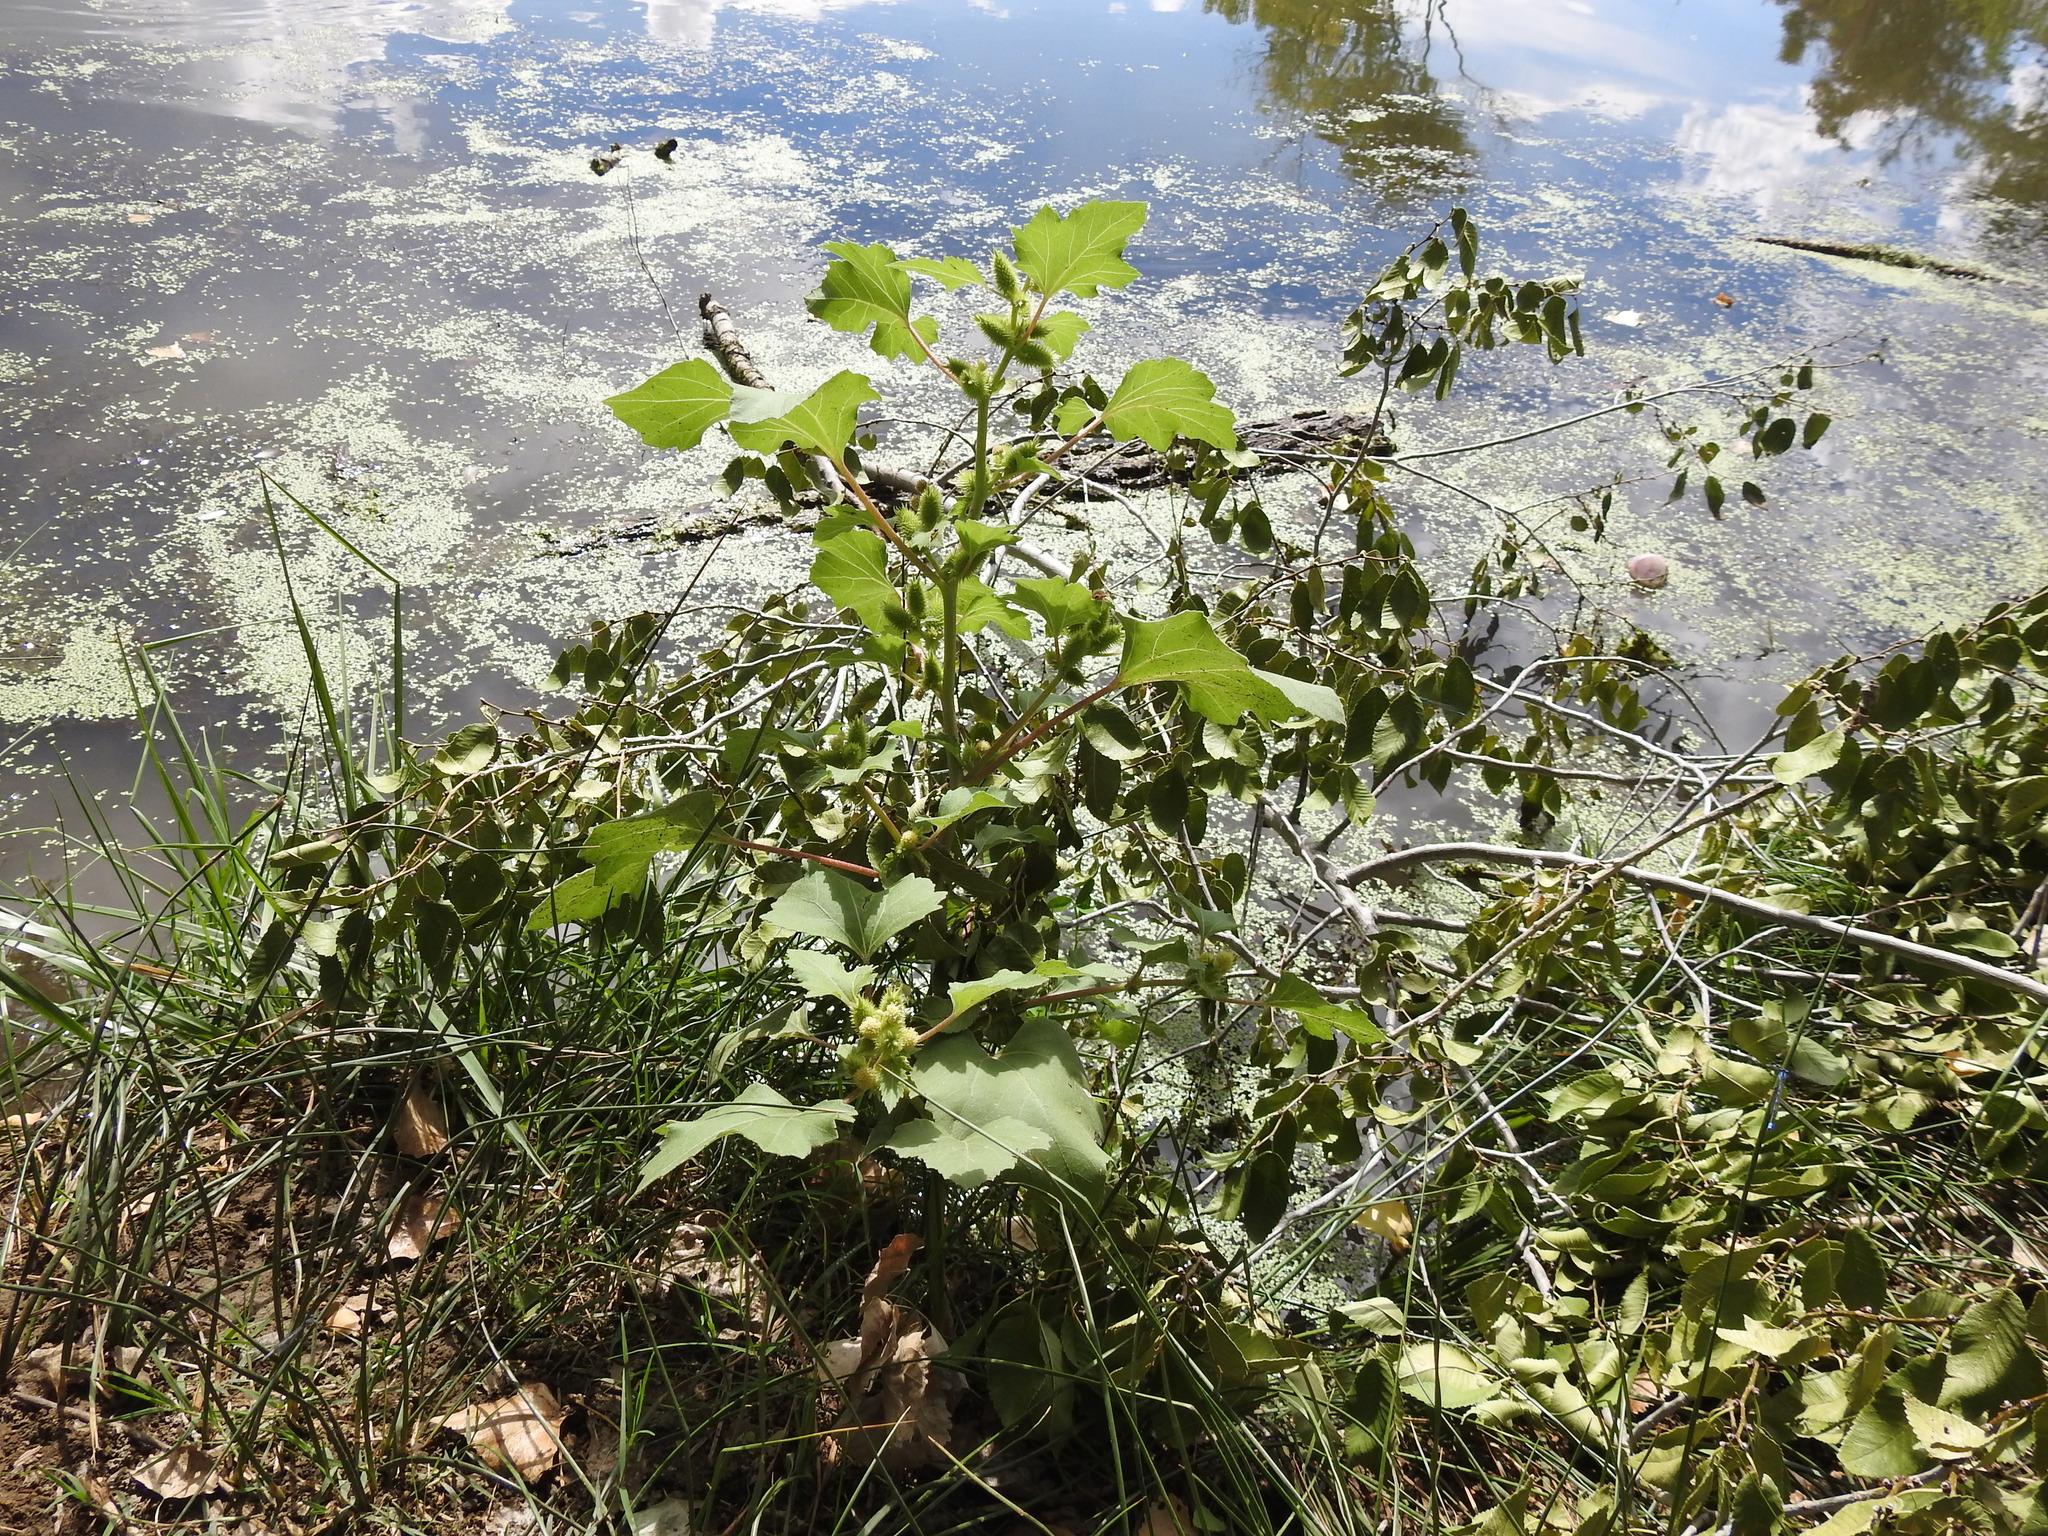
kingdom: Plantae
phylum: Tracheophyta
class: Magnoliopsida
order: Asterales
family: Asteraceae
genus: Xanthium
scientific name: Xanthium strumarium
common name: Rough cocklebur
